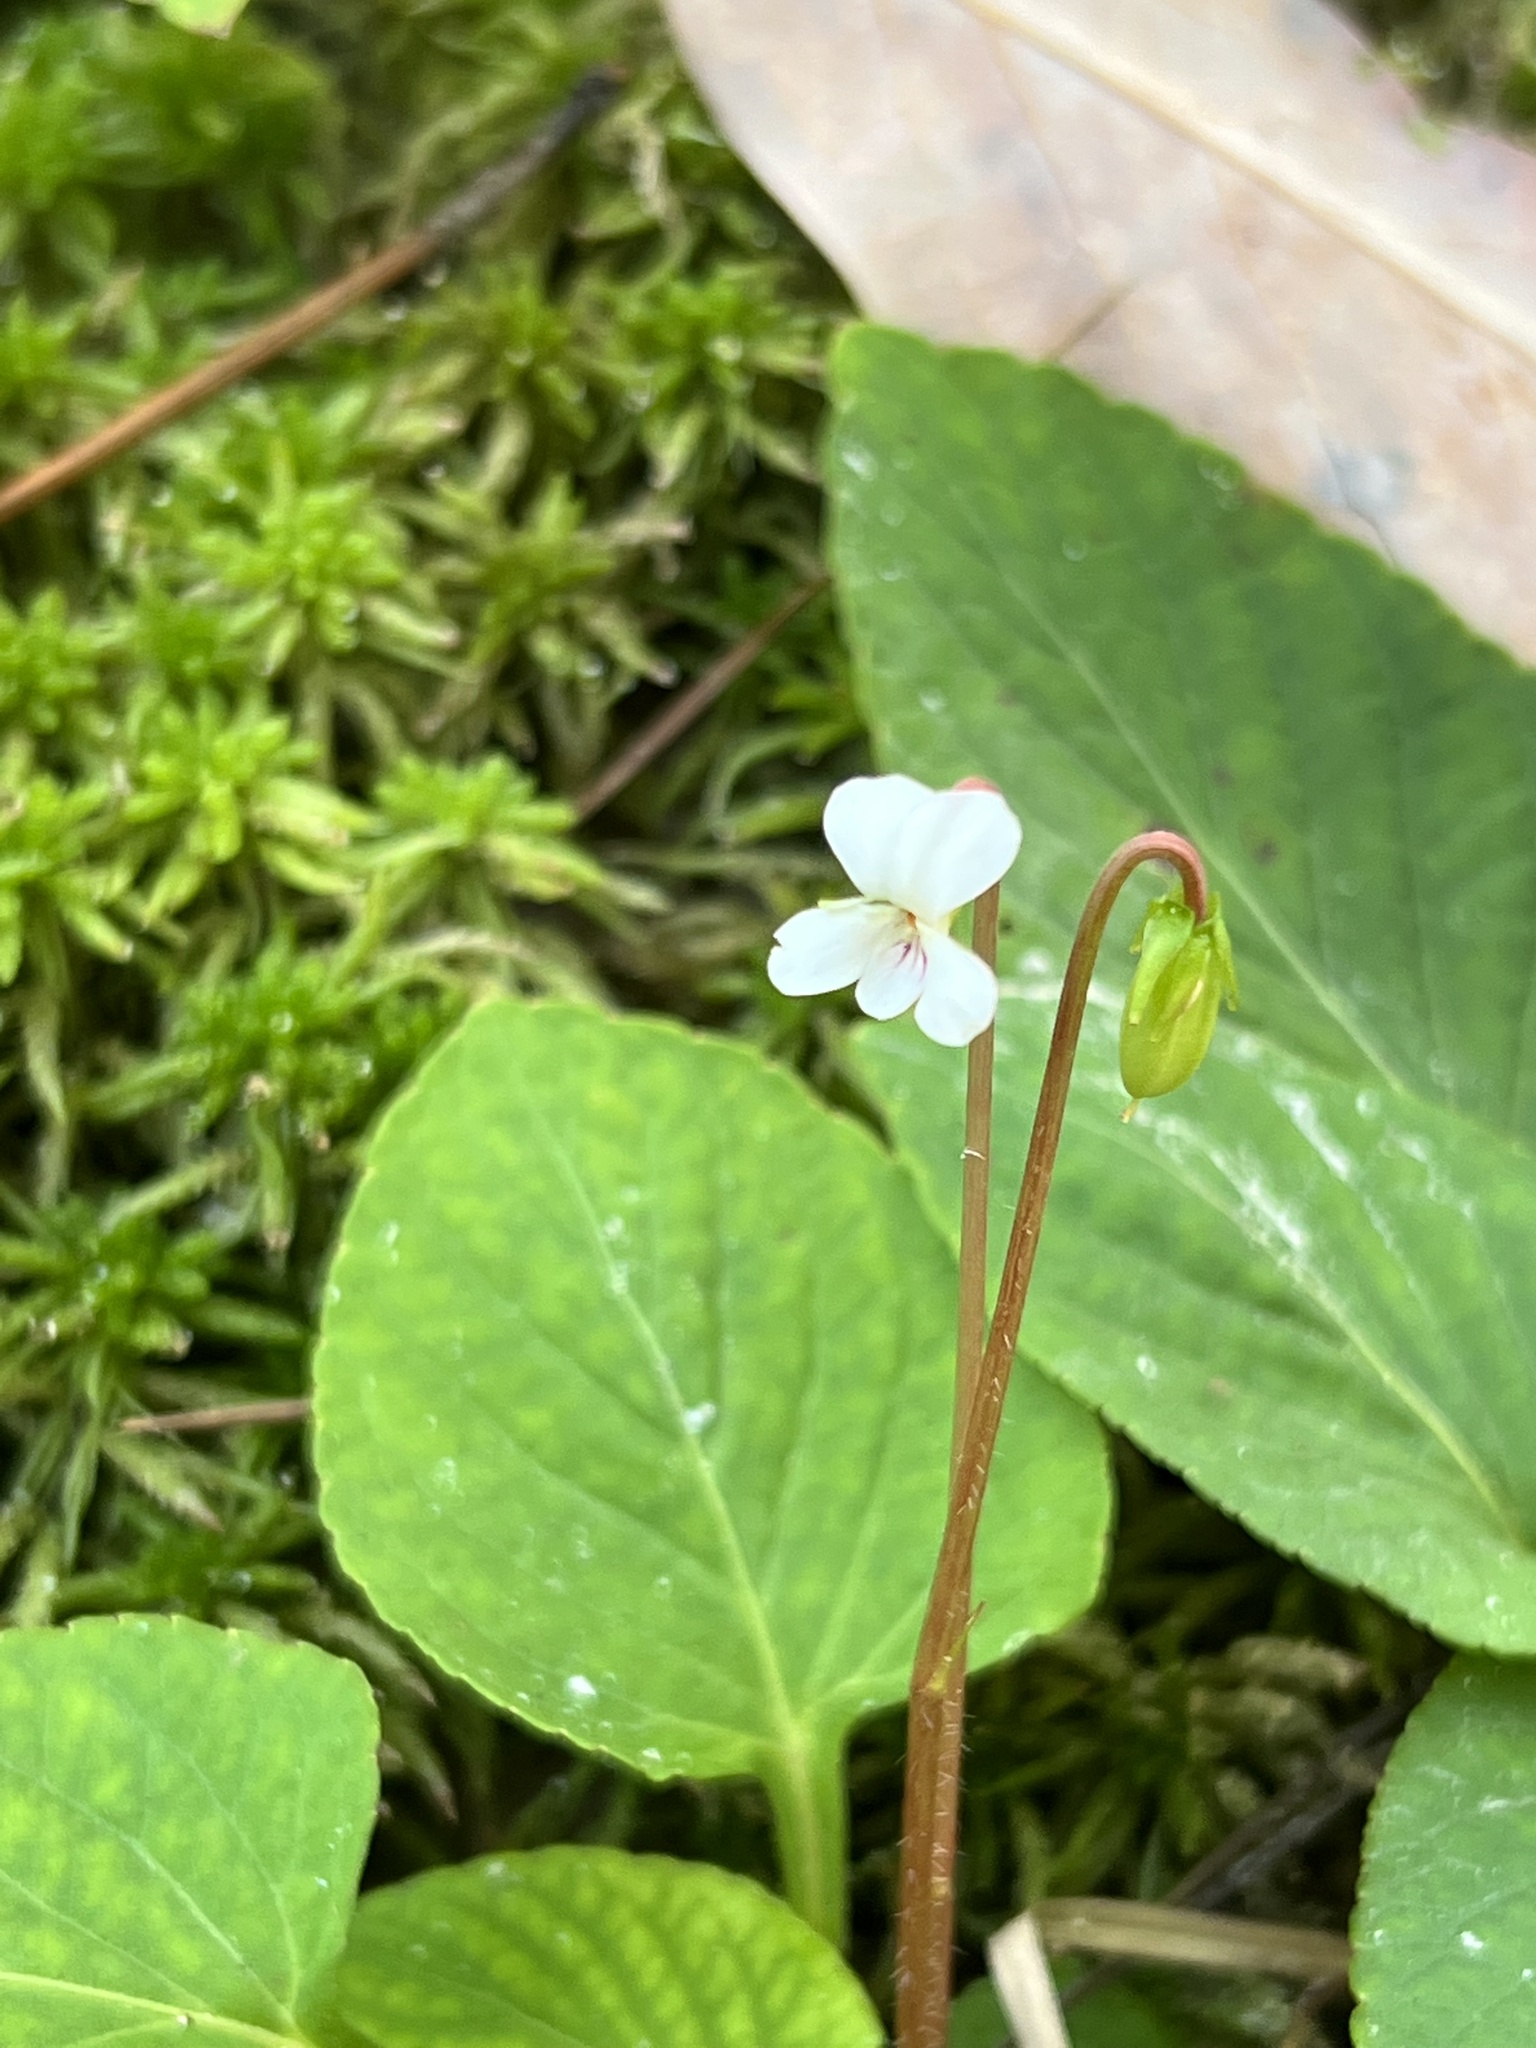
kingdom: Plantae
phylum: Tracheophyta
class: Magnoliopsida
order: Malpighiales
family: Violaceae
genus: Viola
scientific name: Viola primulifolia
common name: Primrose-leaf violet
